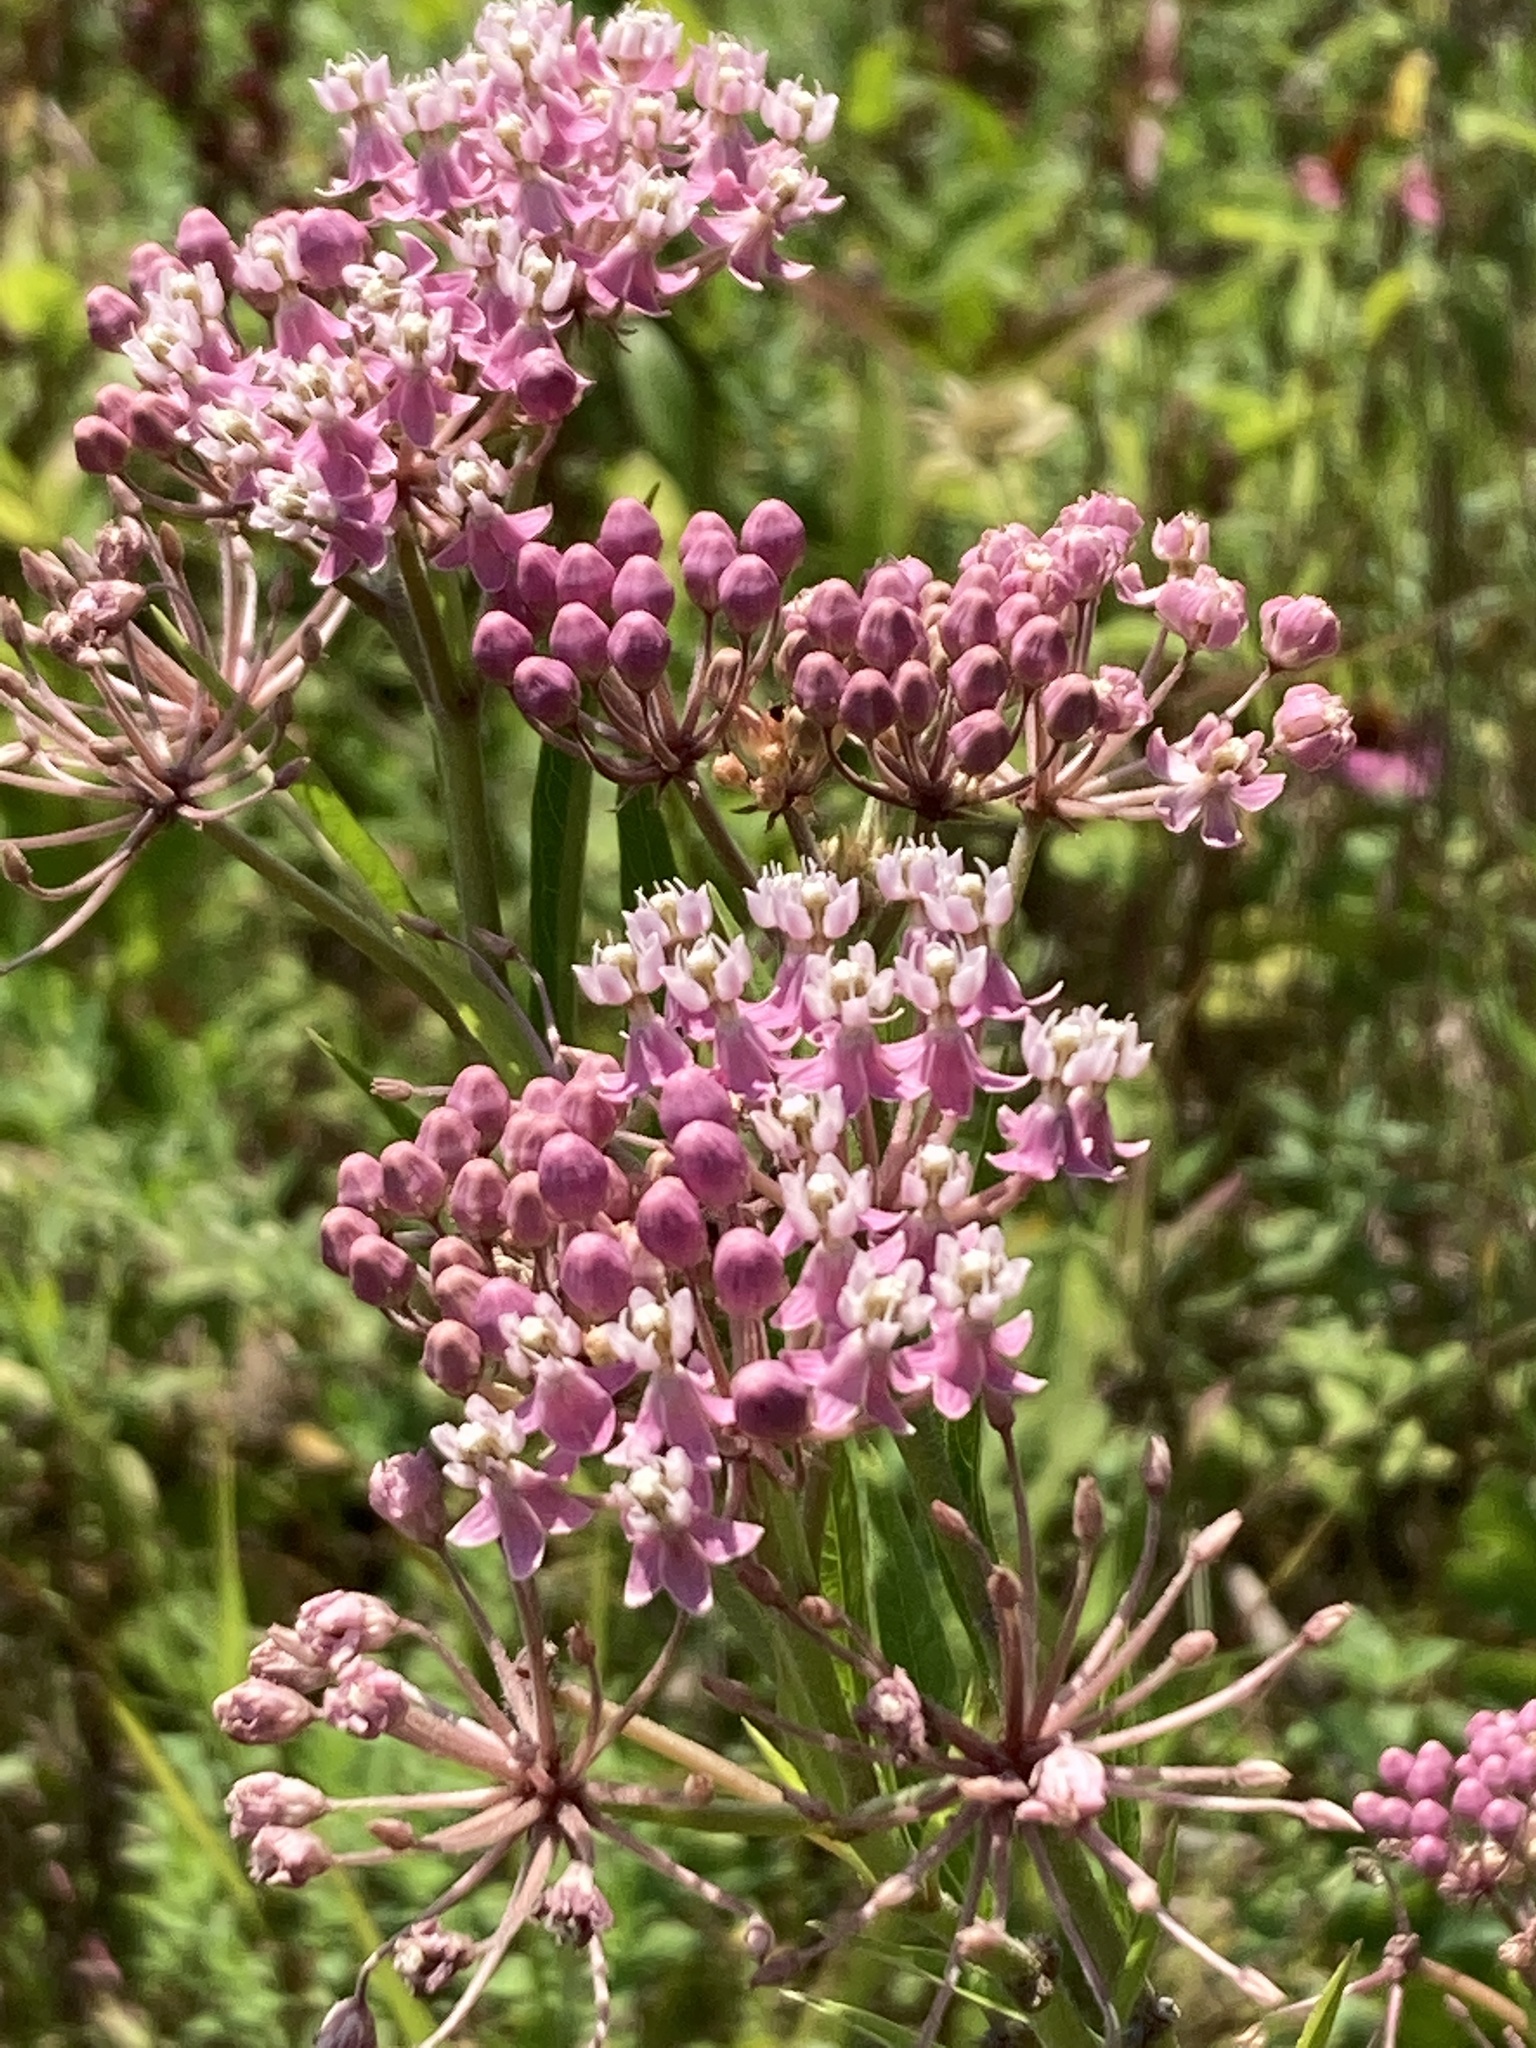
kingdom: Plantae
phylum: Tracheophyta
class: Magnoliopsida
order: Gentianales
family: Apocynaceae
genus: Asclepias
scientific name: Asclepias incarnata
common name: Swamp milkweed
